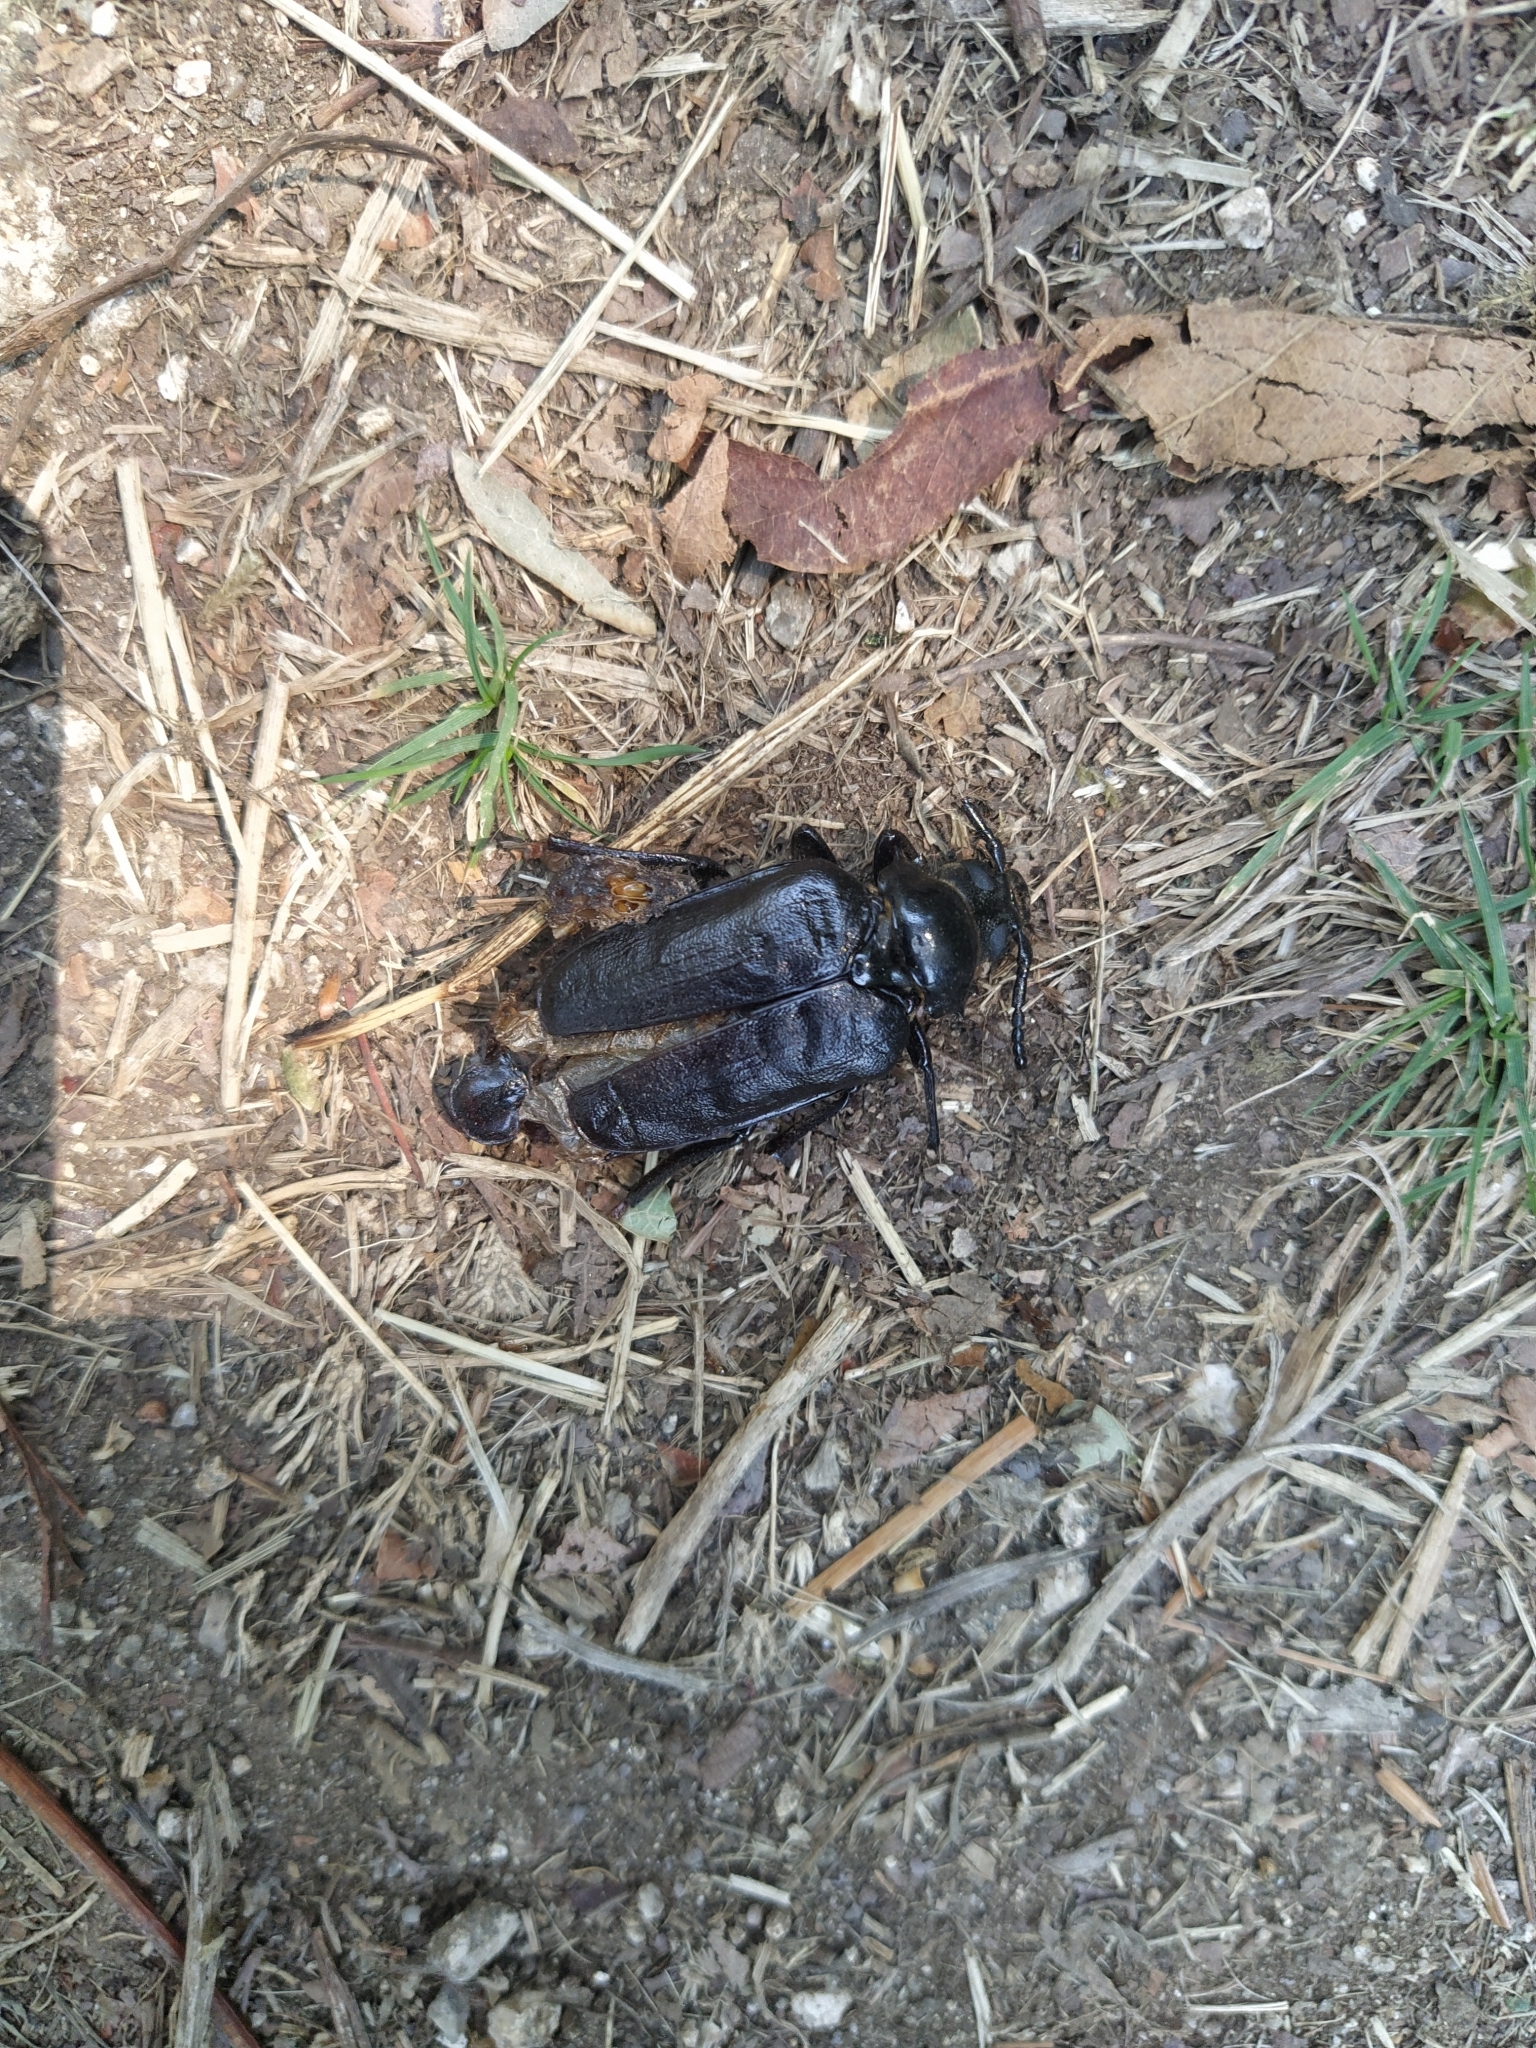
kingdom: Animalia
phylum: Arthropoda
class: Insecta
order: Coleoptera
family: Cerambycidae
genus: Prionus
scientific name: Prionus coriarius
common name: Tanner beetle
